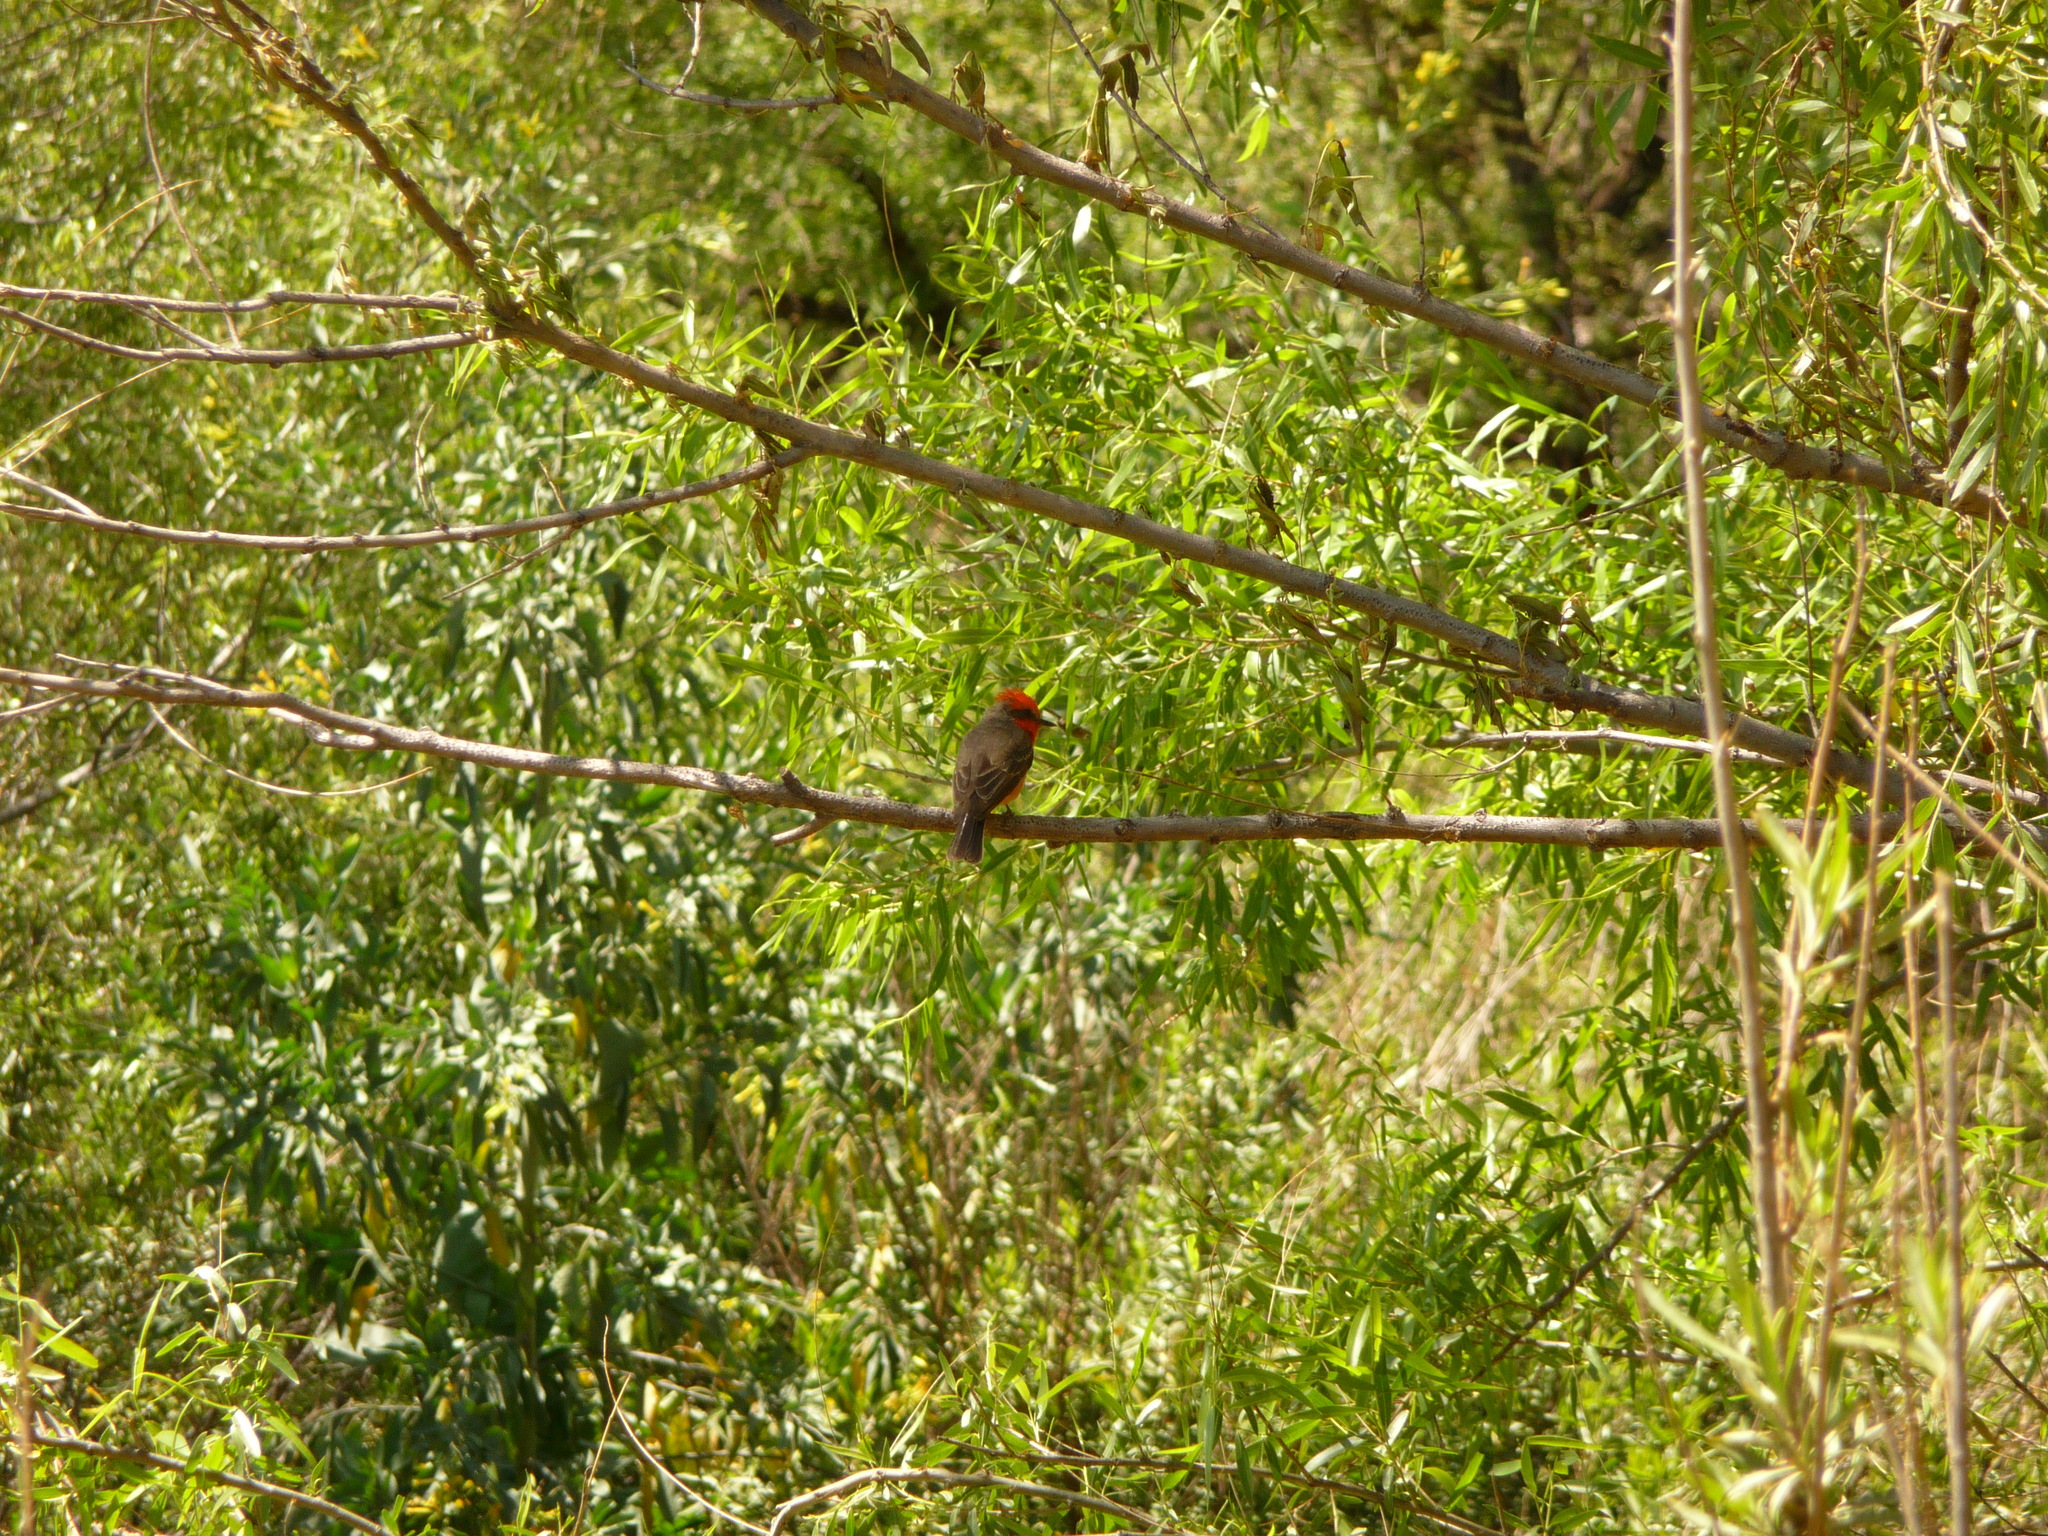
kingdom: Animalia
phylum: Chordata
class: Aves
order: Passeriformes
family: Tyrannidae
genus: Pyrocephalus
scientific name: Pyrocephalus rubinus
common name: Vermilion flycatcher
